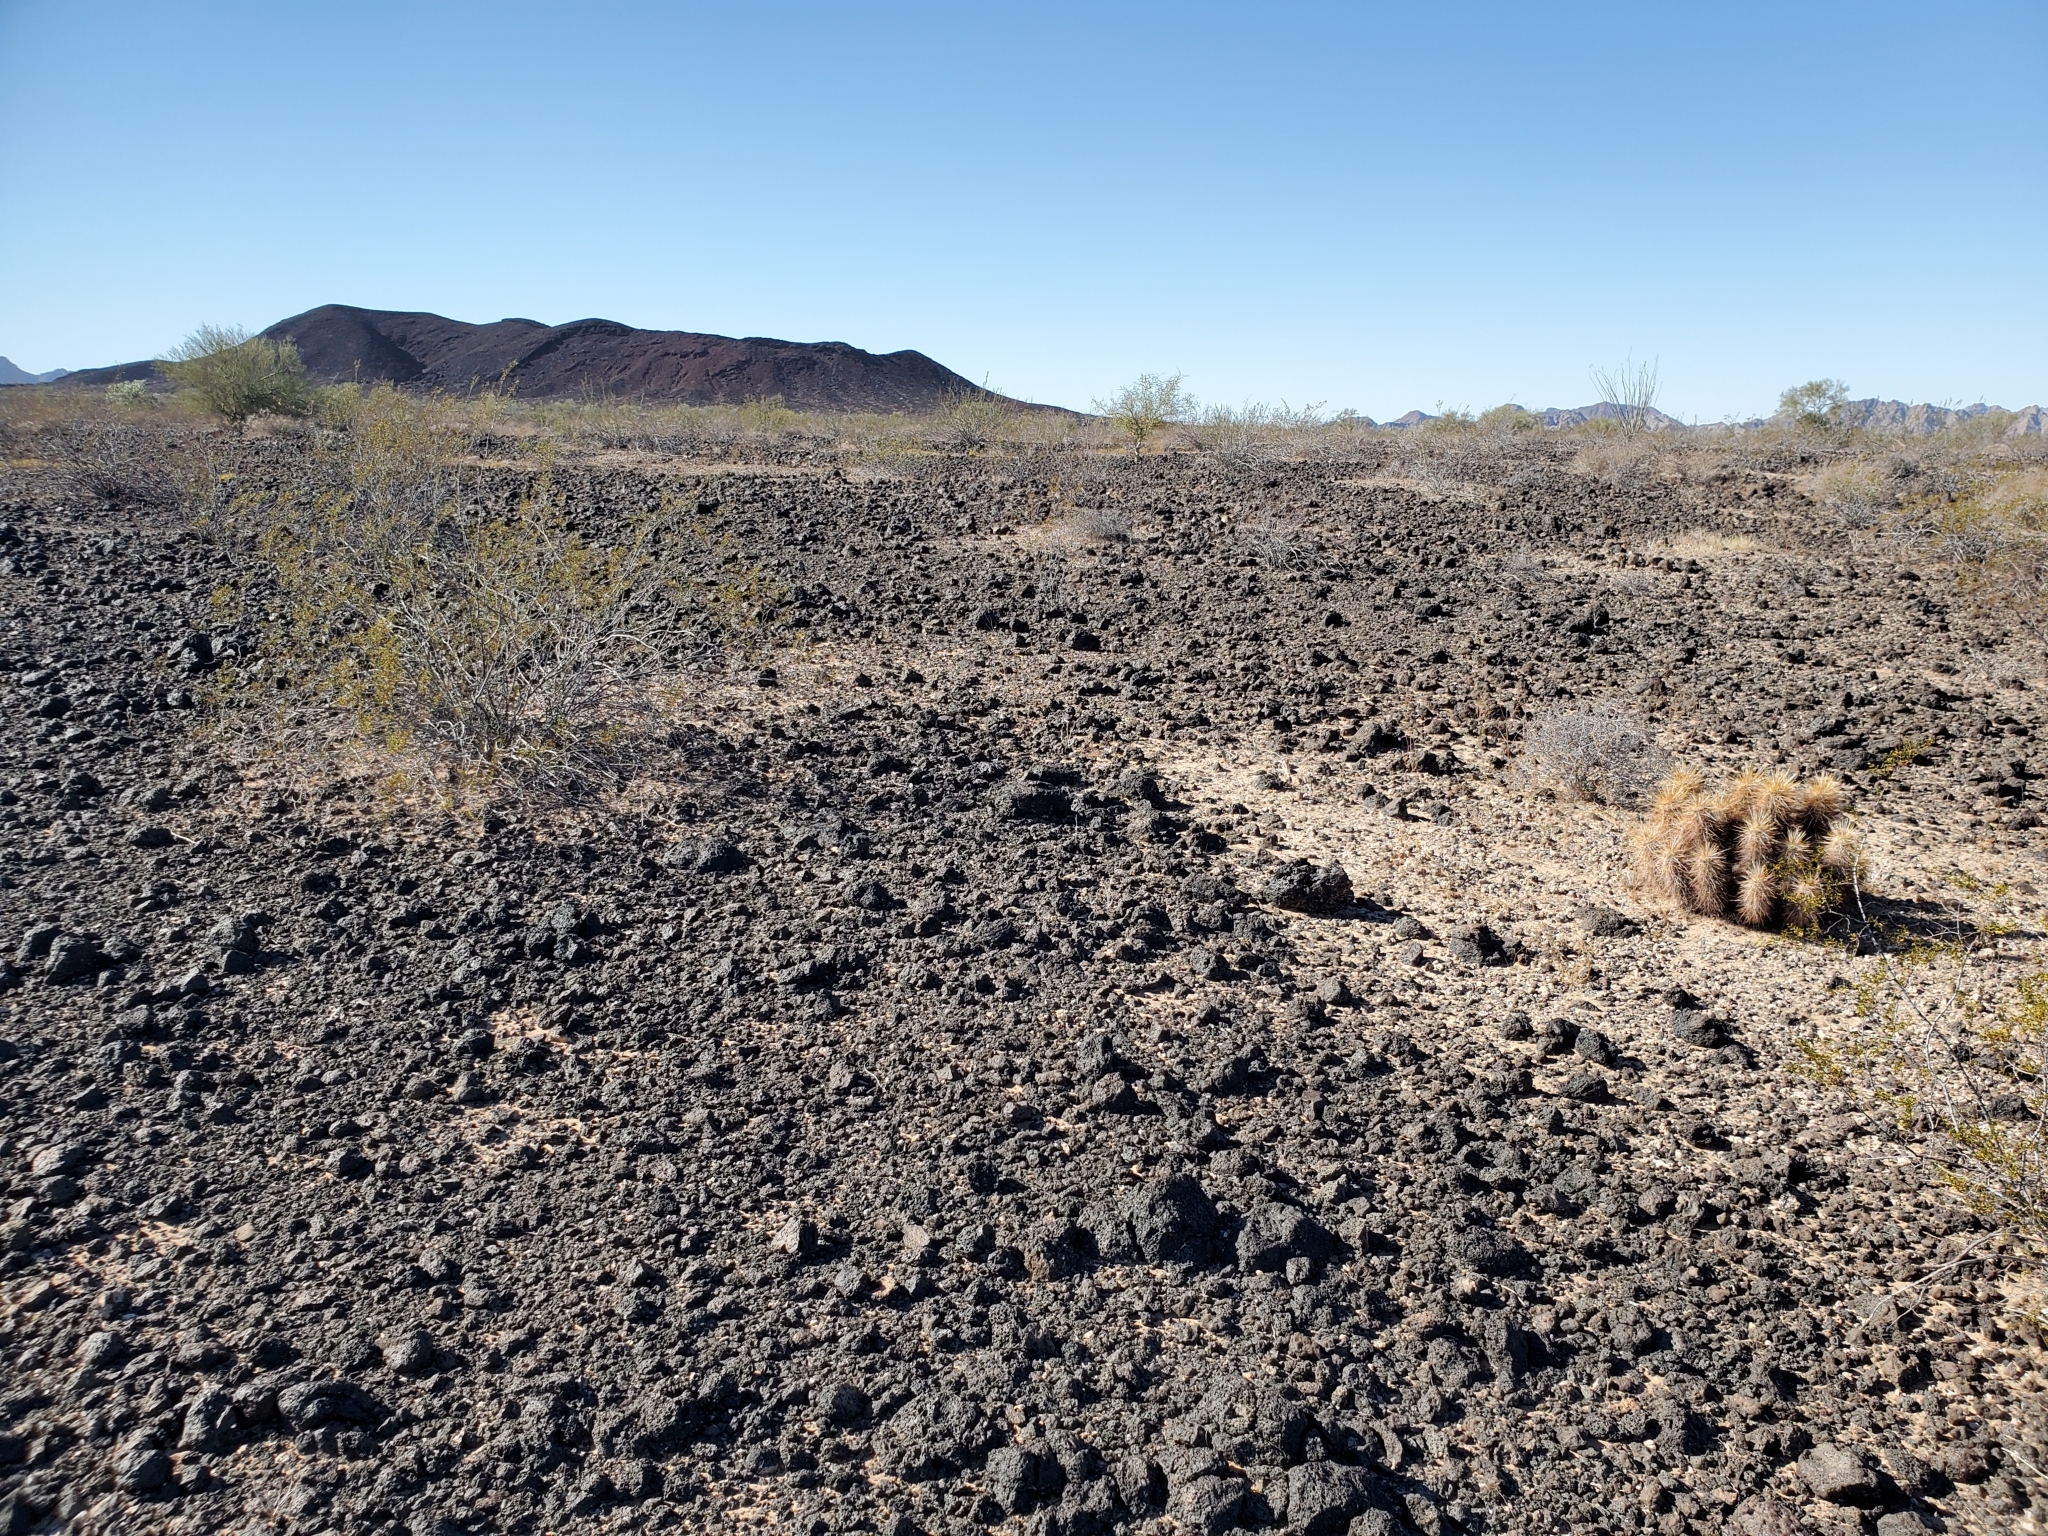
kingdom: Plantae
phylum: Tracheophyta
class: Magnoliopsida
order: Caryophyllales
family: Cactaceae
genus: Echinocereus
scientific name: Echinocereus engelmannii
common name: Engelmann's hedgehog cactus
